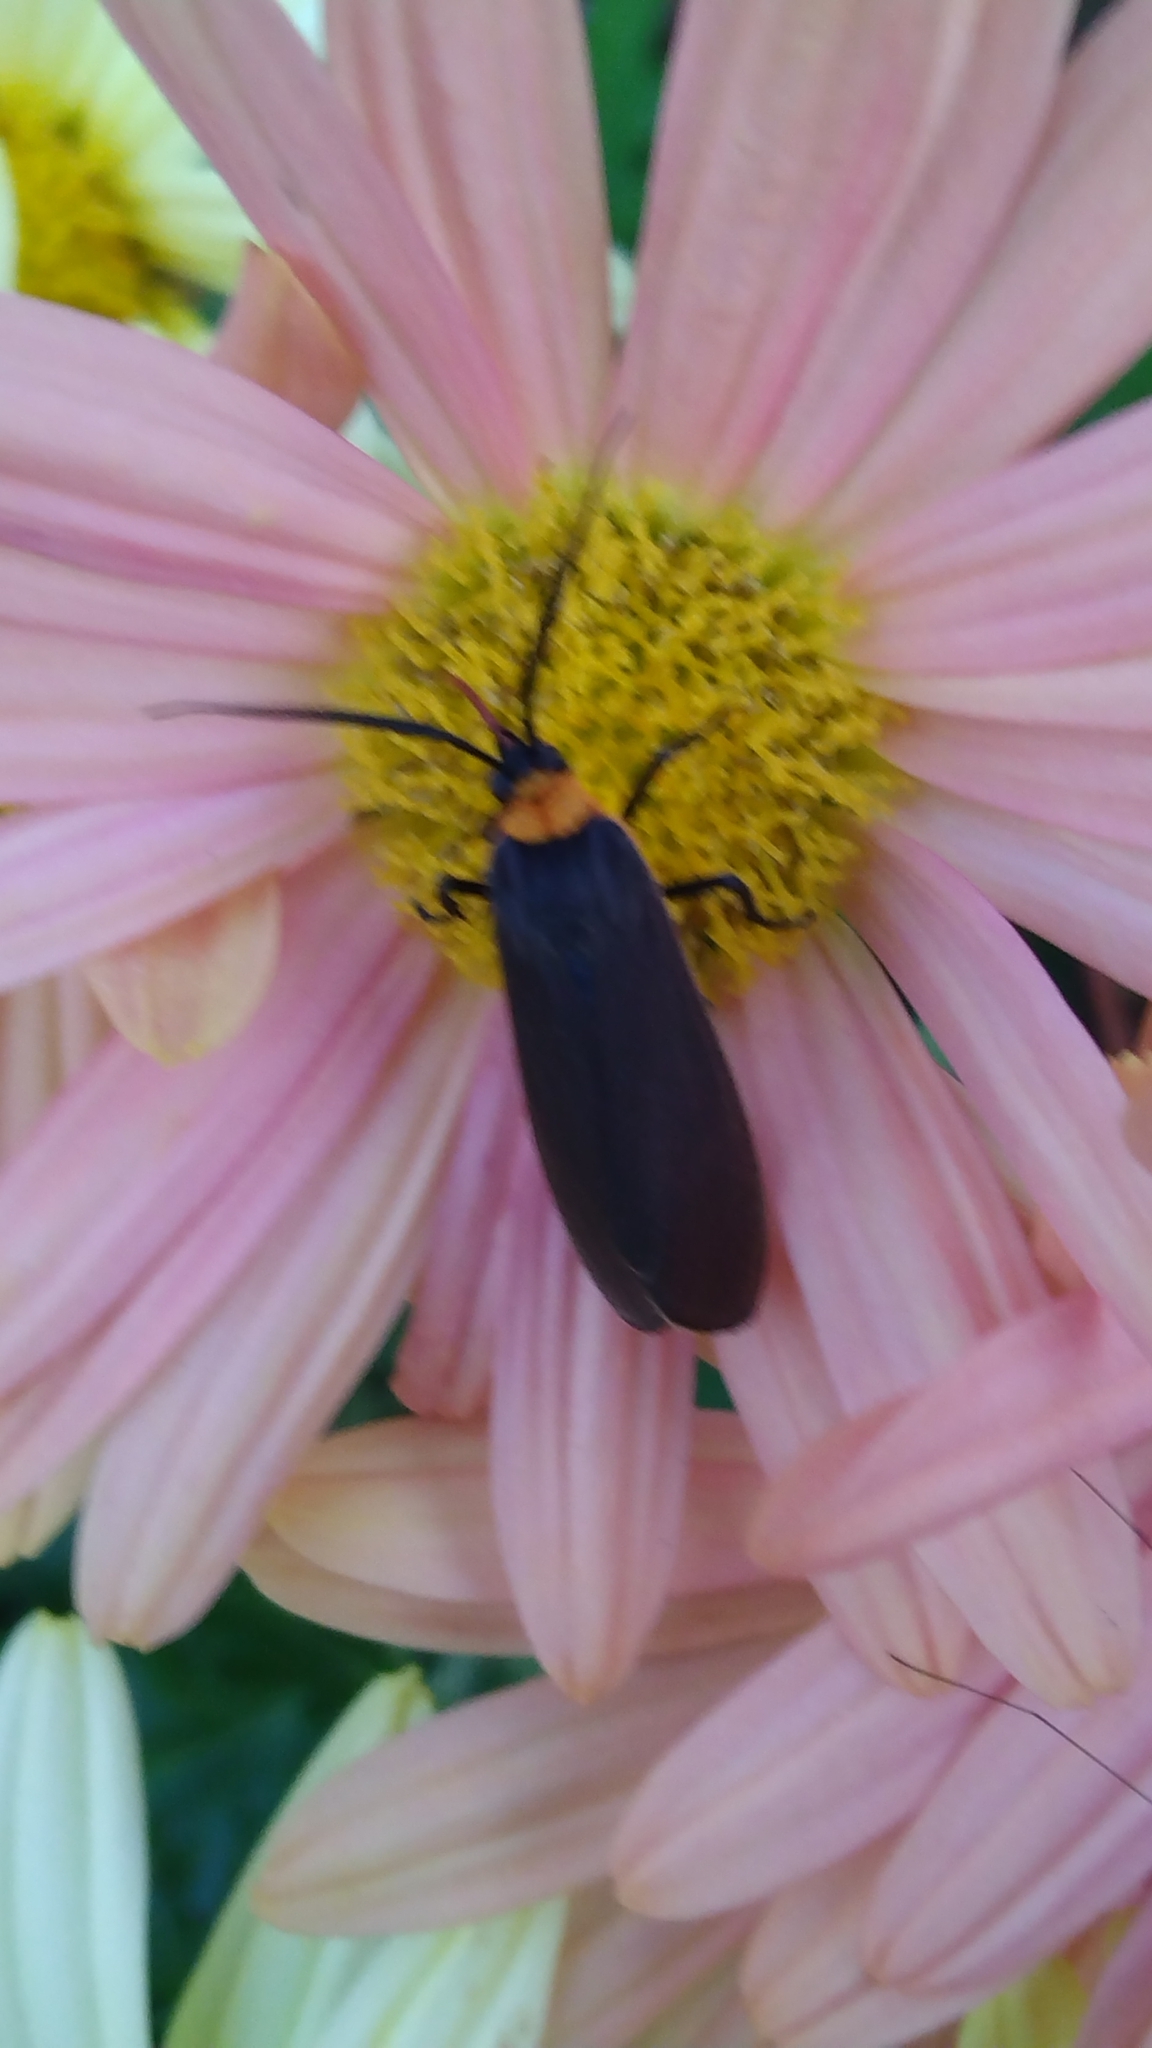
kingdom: Animalia
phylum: Arthropoda
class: Insecta
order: Lepidoptera
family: Erebidae
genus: Cisseps
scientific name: Cisseps fulvicollis
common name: Yellow-collared scape moth
